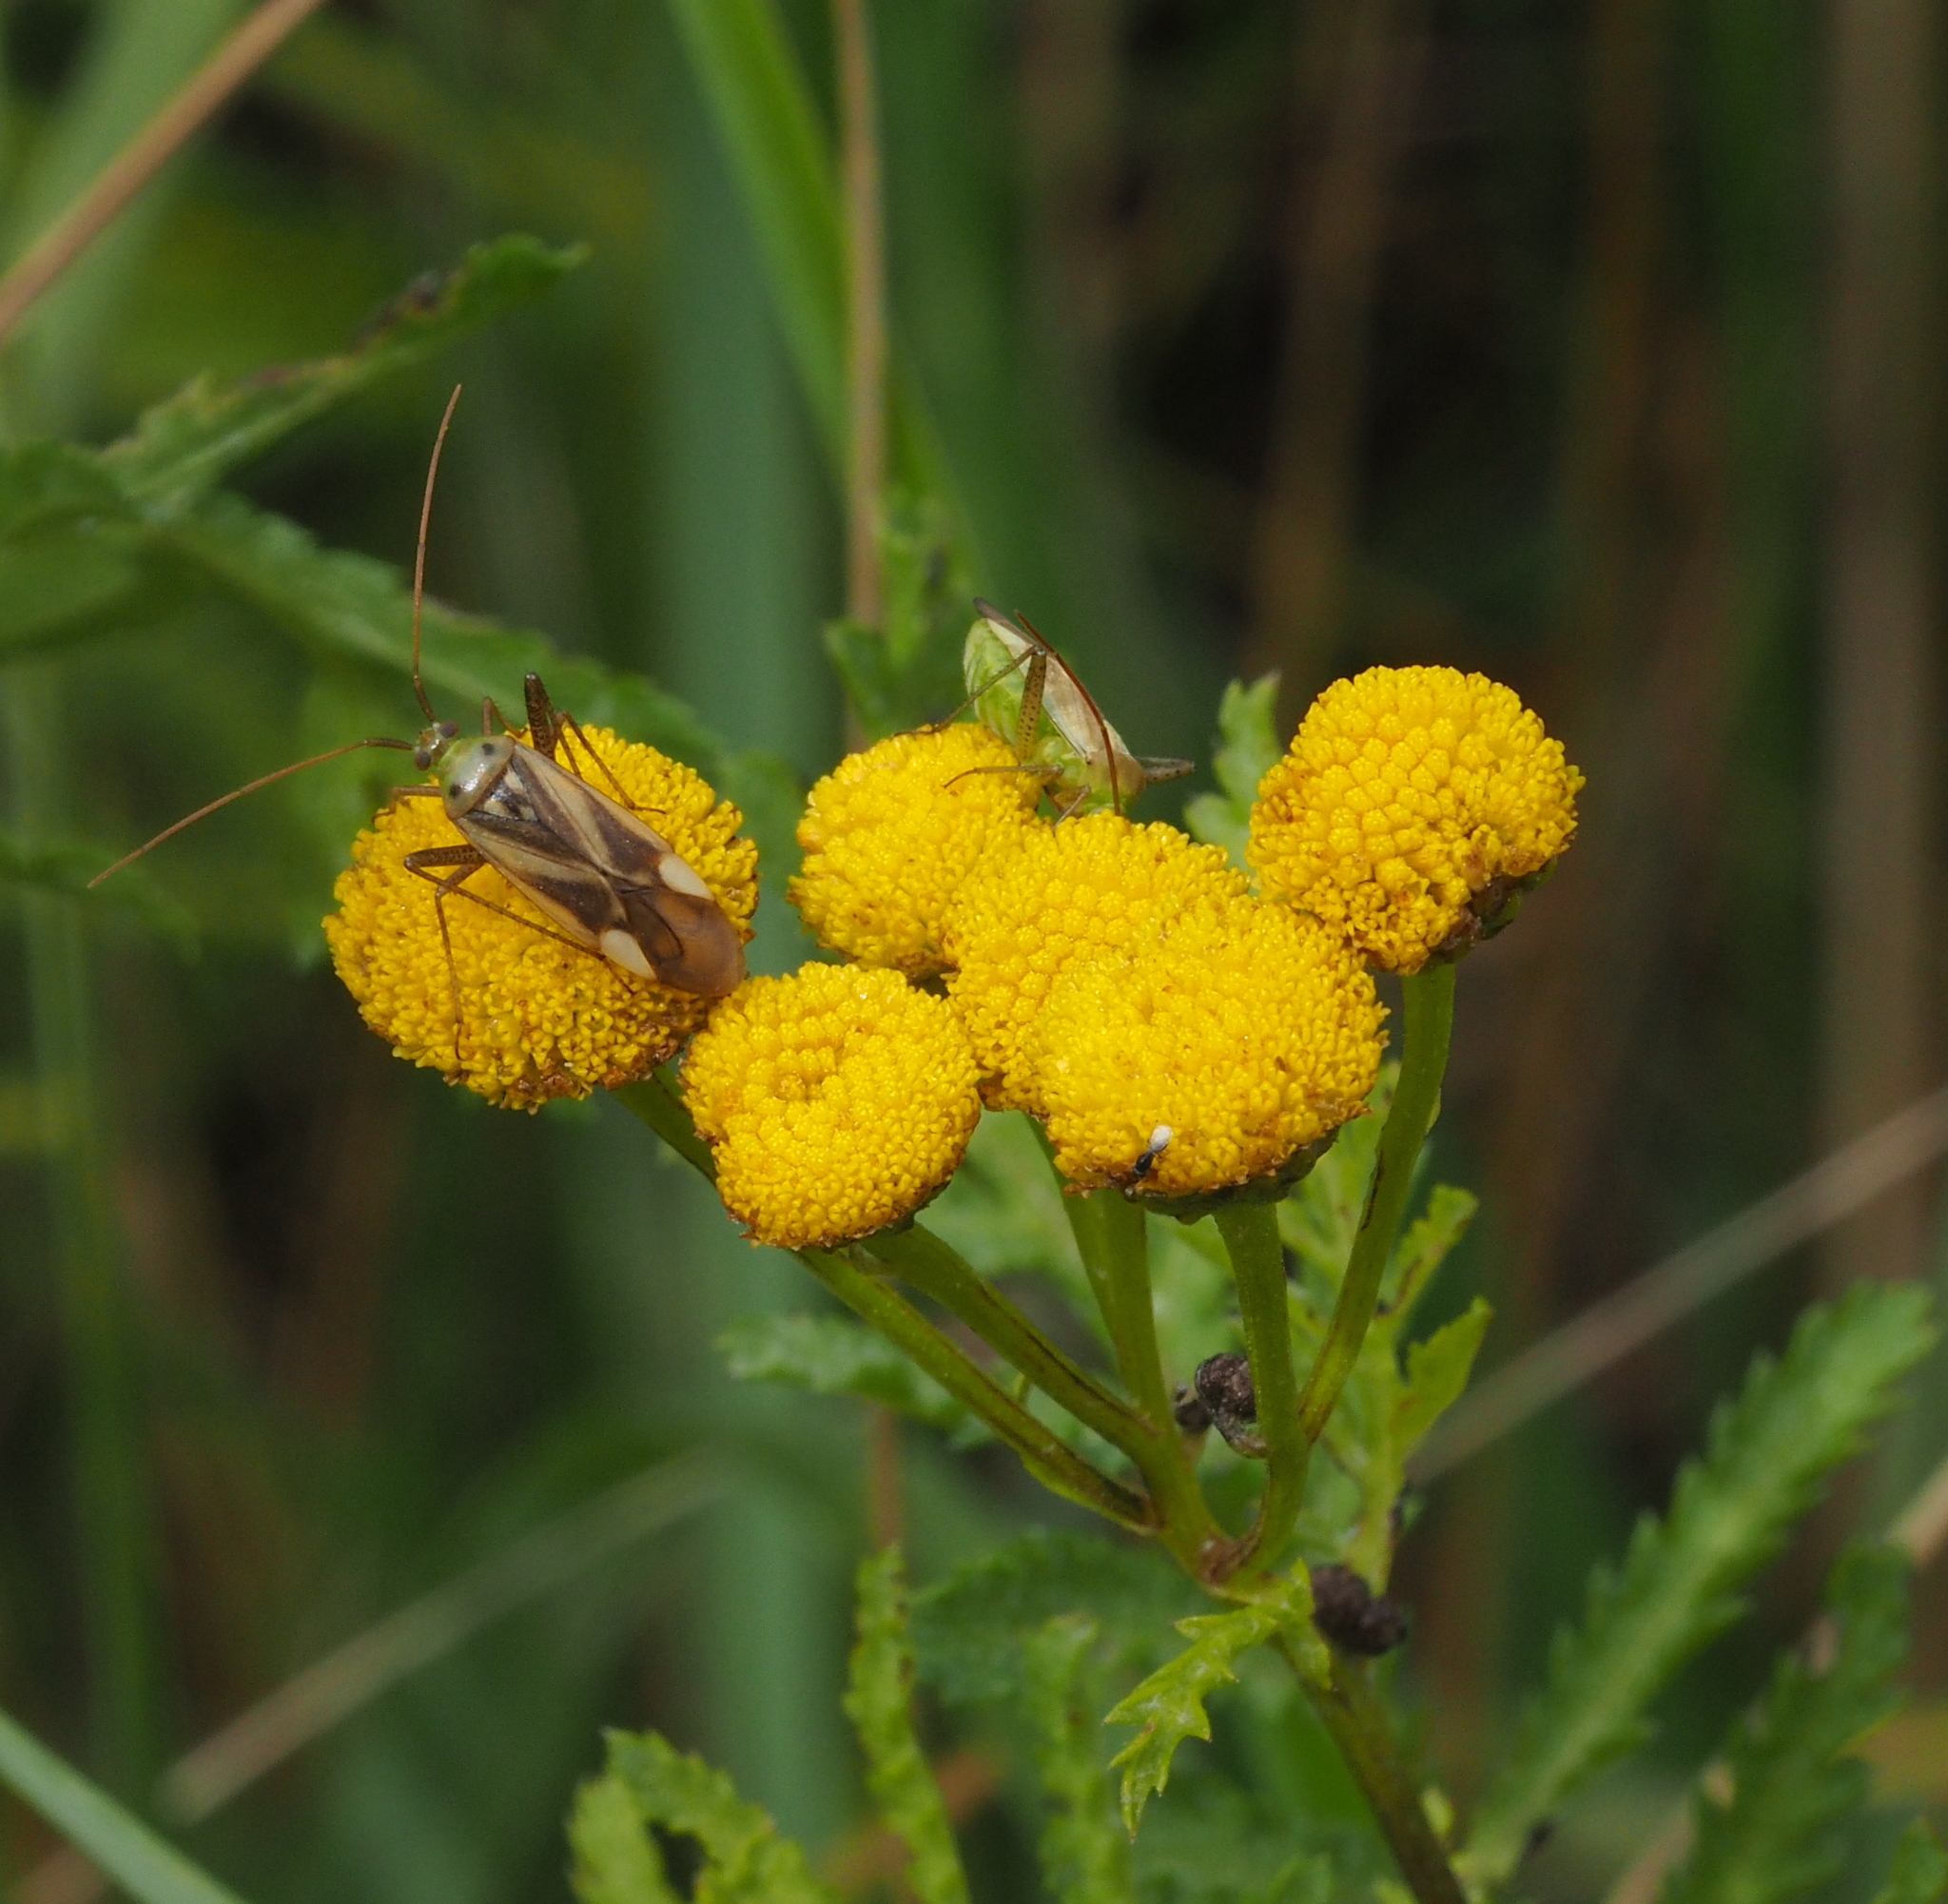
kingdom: Animalia
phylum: Arthropoda
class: Insecta
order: Hemiptera
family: Miridae
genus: Adelphocoris
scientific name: Adelphocoris lineolatus
